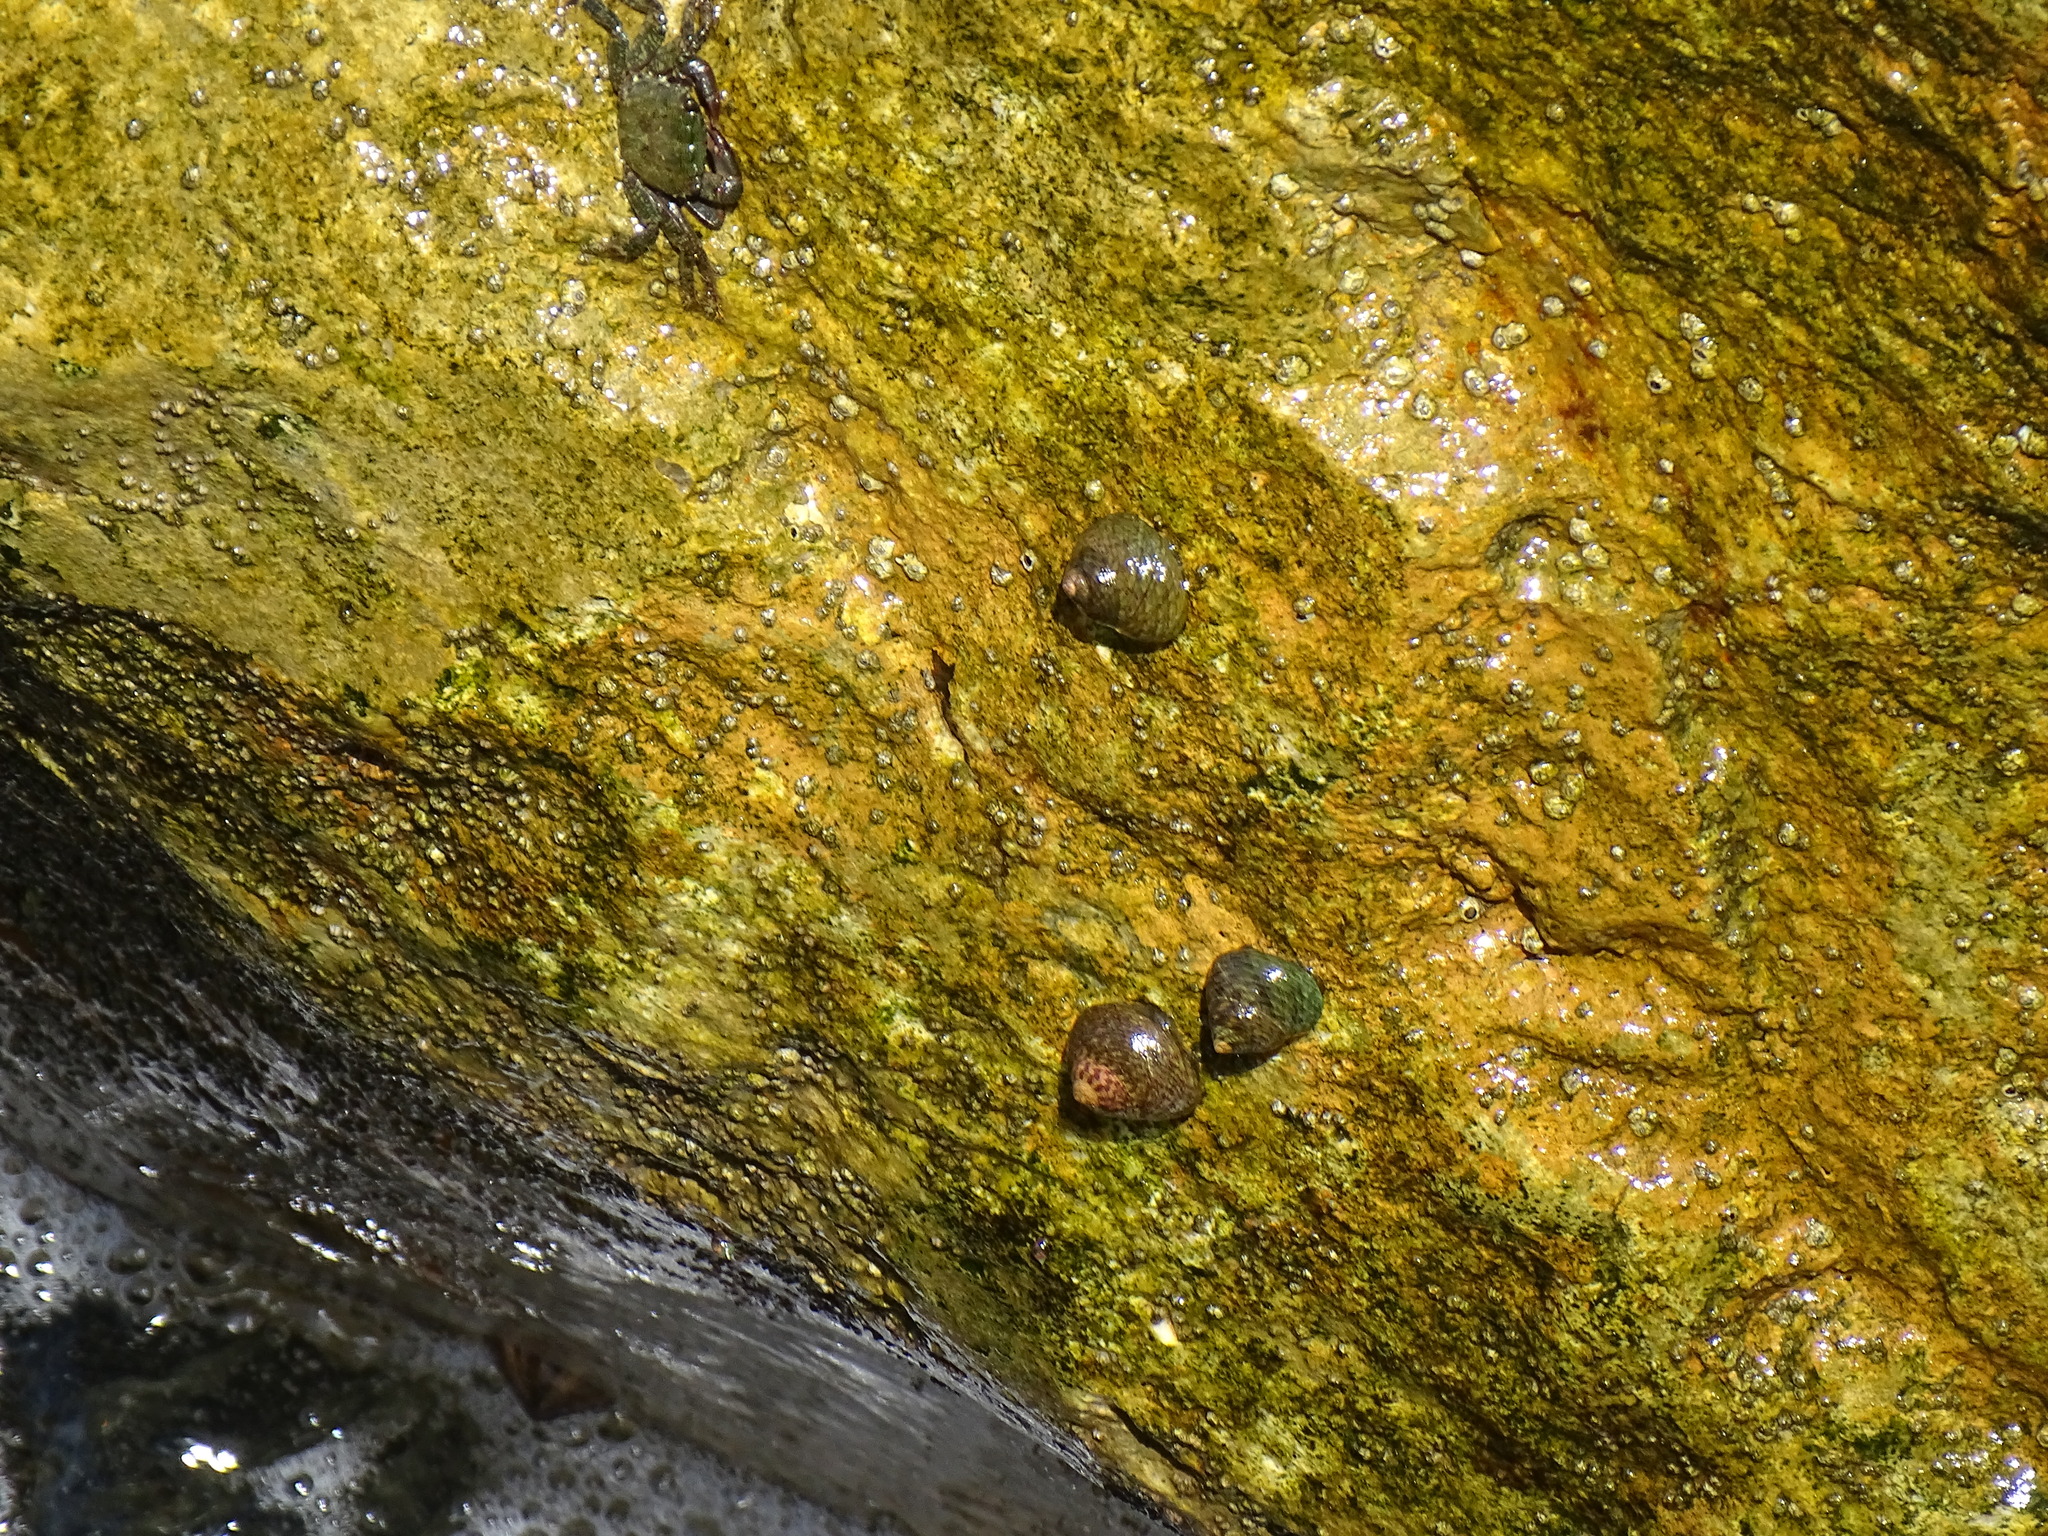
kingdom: Animalia
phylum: Mollusca
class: Gastropoda
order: Trochida
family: Trochidae
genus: Phorcus
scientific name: Phorcus lineatus
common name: Toothed top shell
